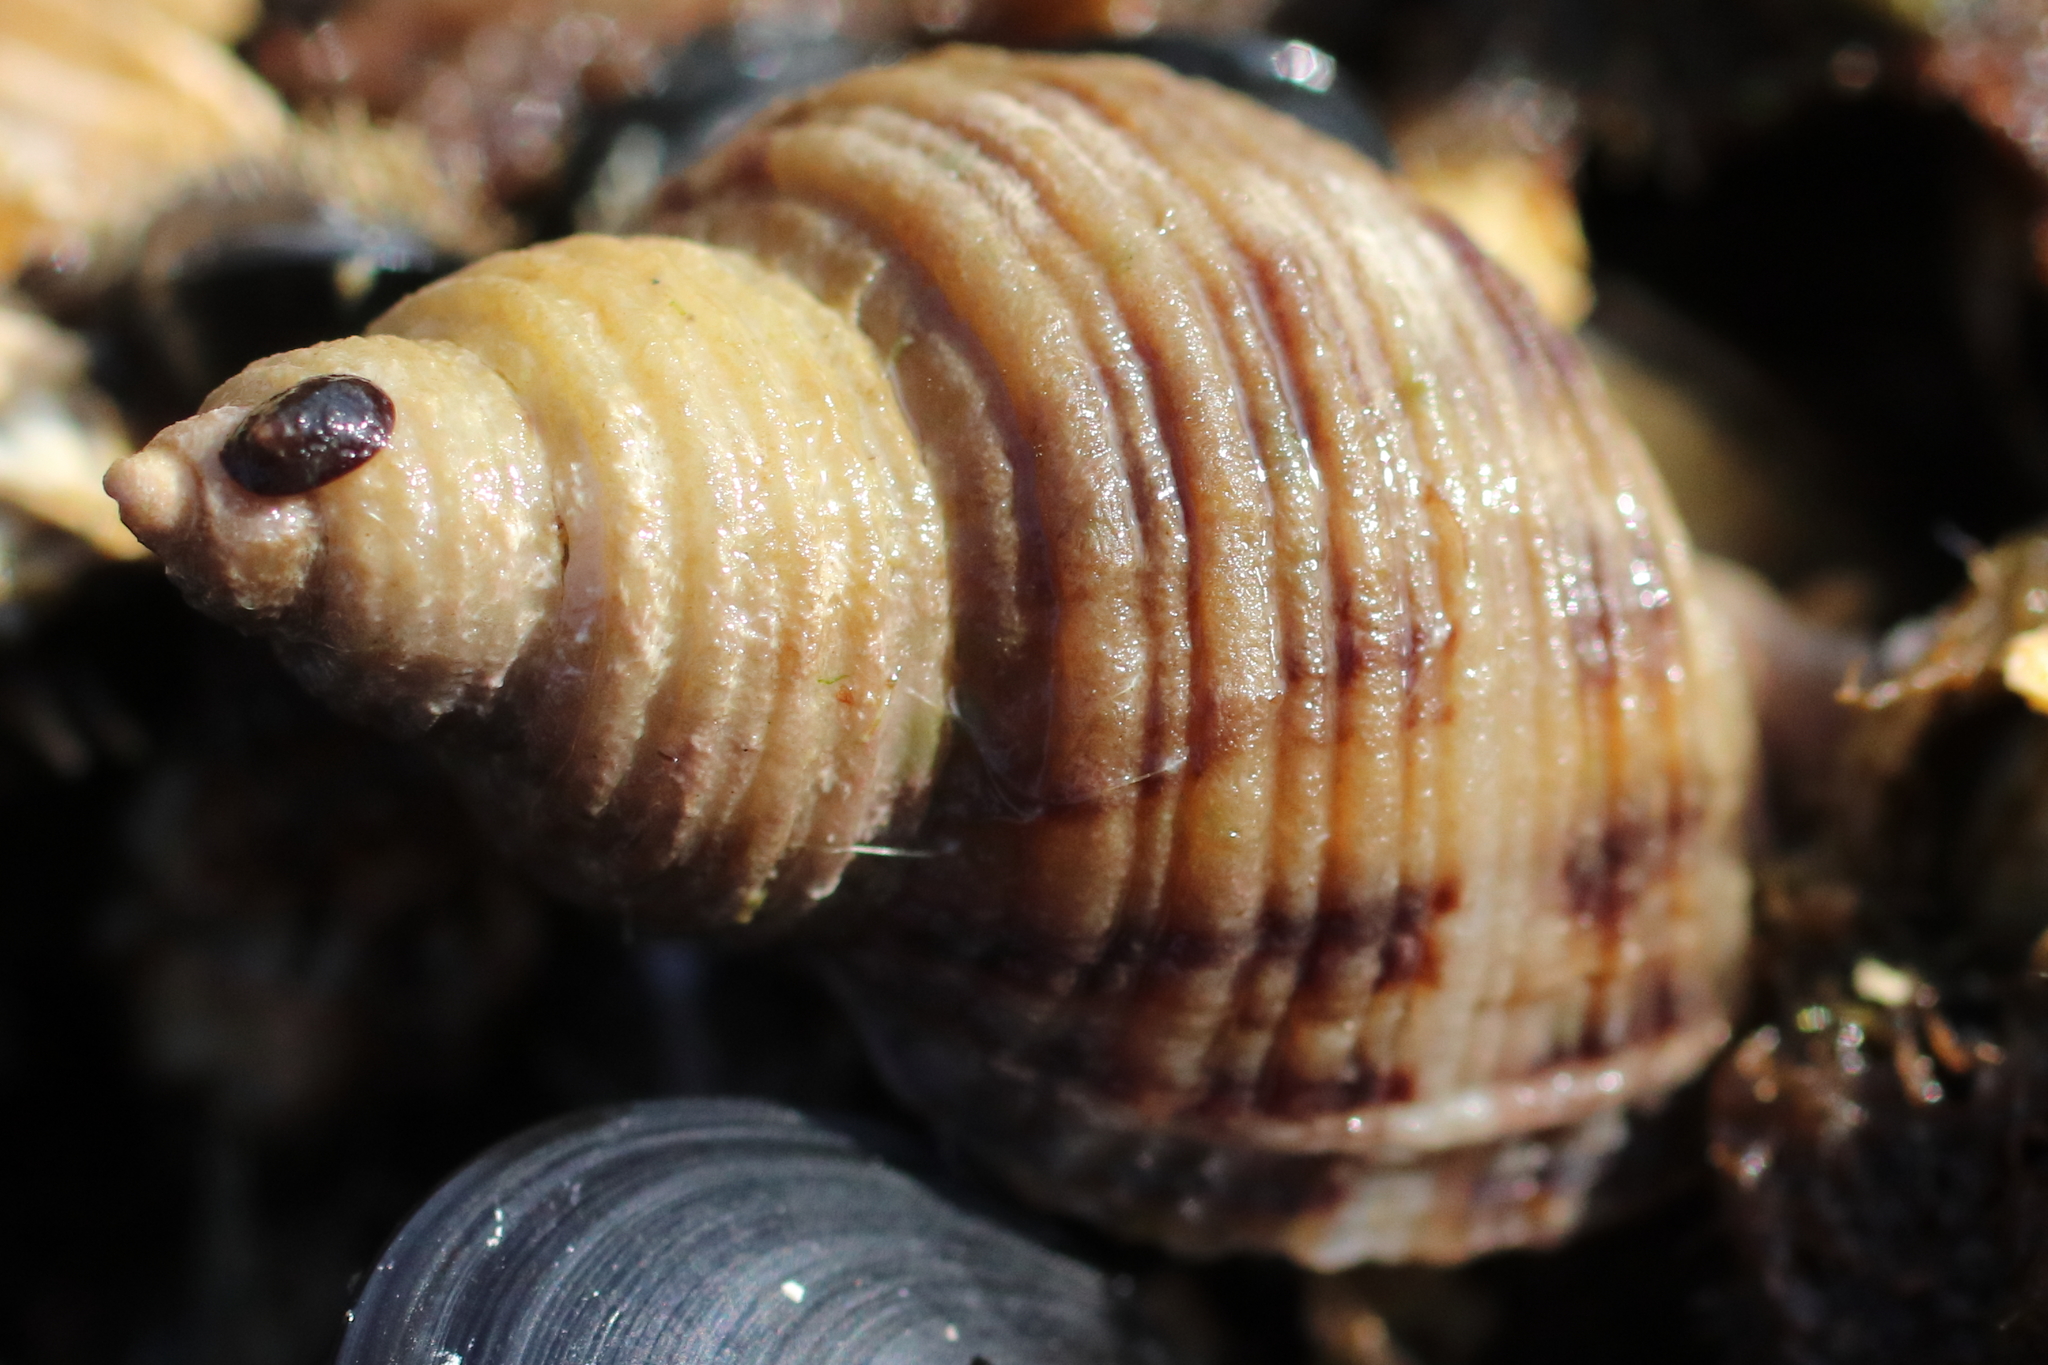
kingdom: Animalia
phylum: Mollusca
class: Gastropoda
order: Neogastropoda
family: Muricidae
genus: Nucella
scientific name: Nucella canaliculata
